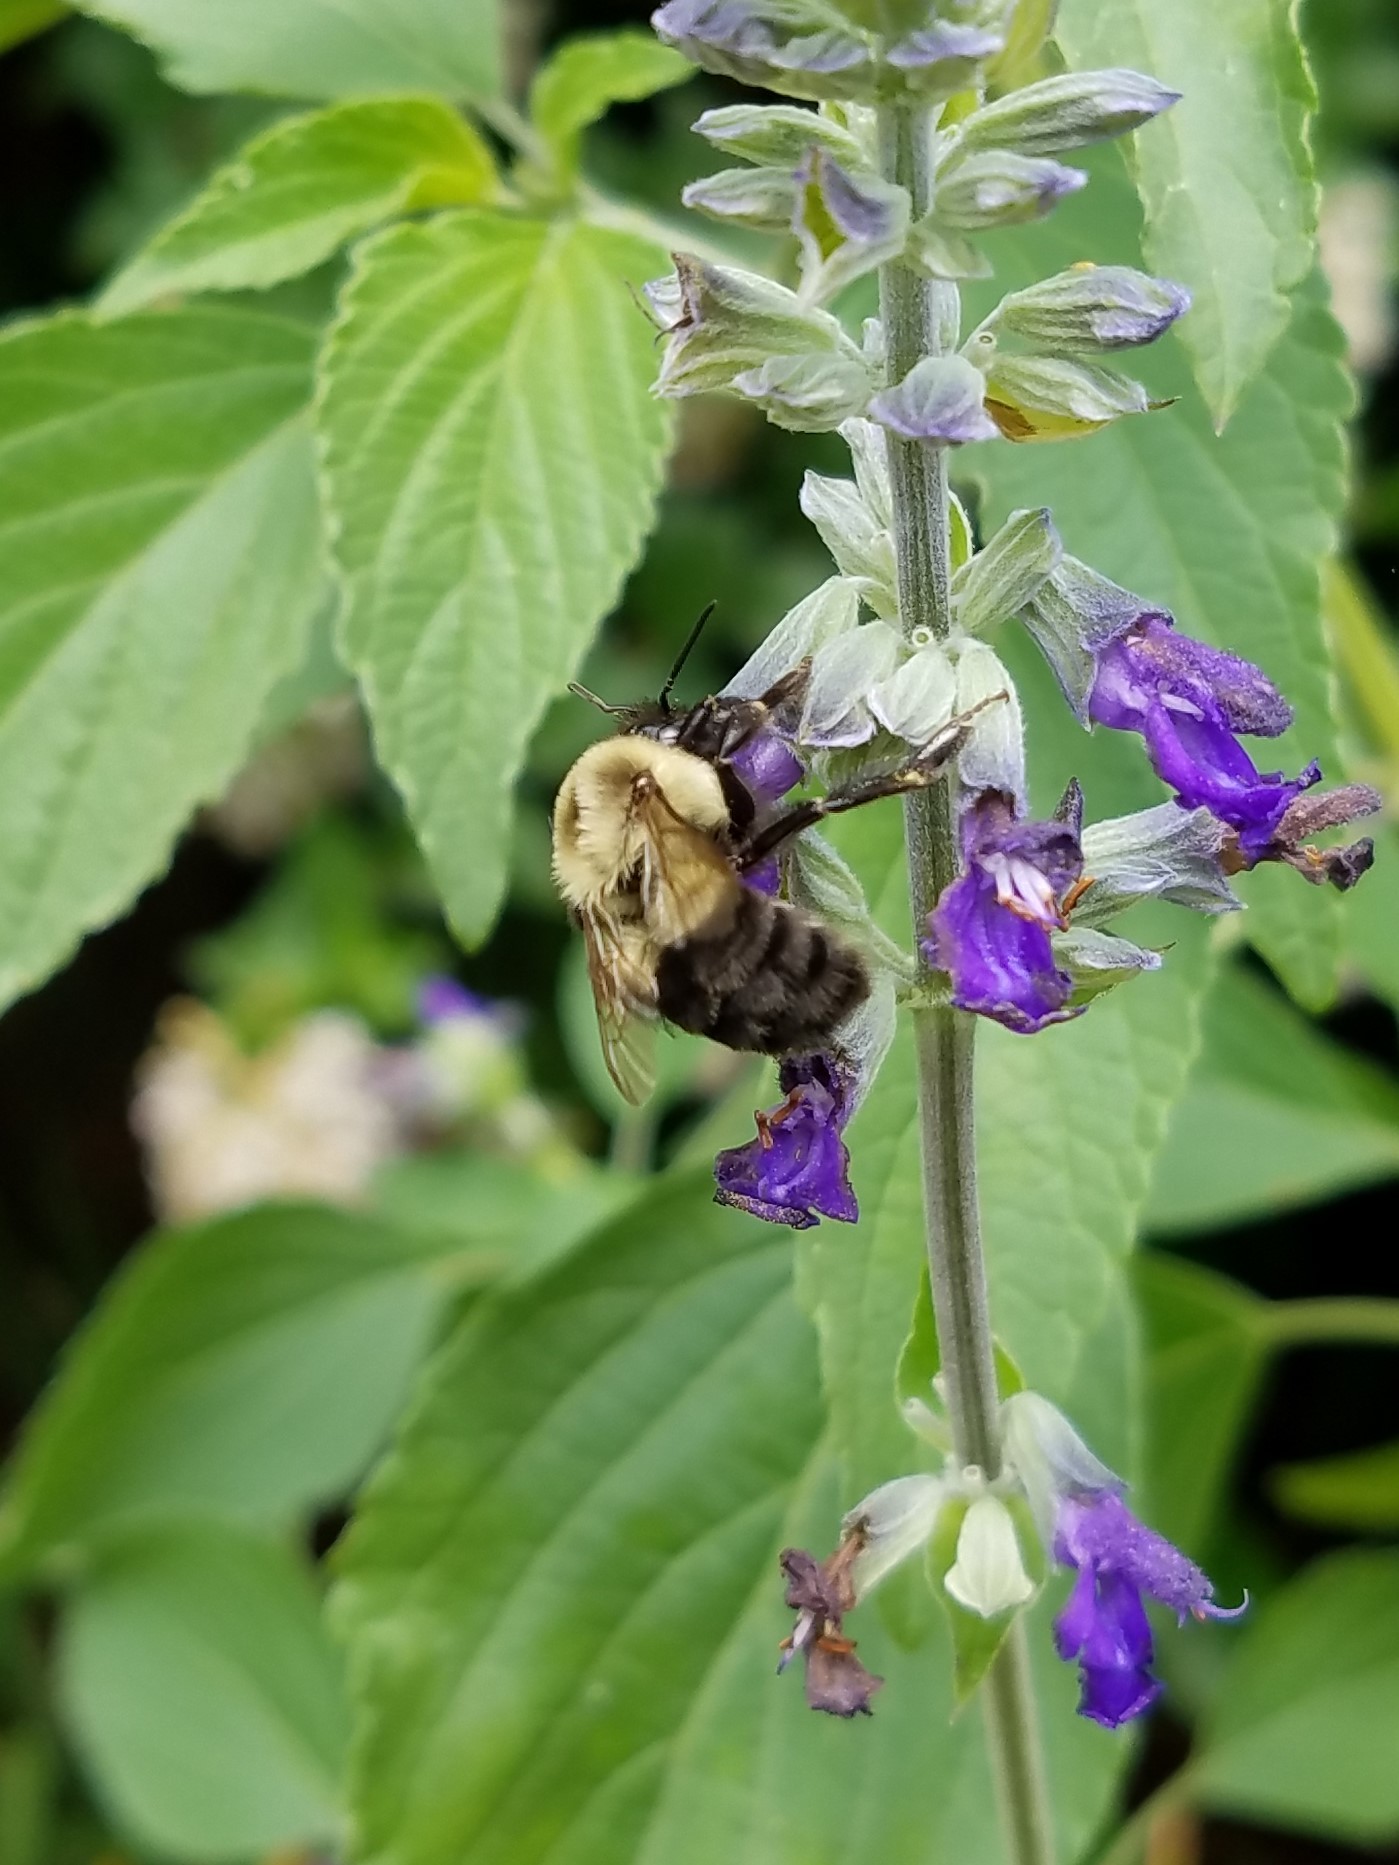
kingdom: Animalia
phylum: Arthropoda
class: Insecta
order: Hymenoptera
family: Apidae
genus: Bombus
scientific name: Bombus impatiens
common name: Common eastern bumble bee
